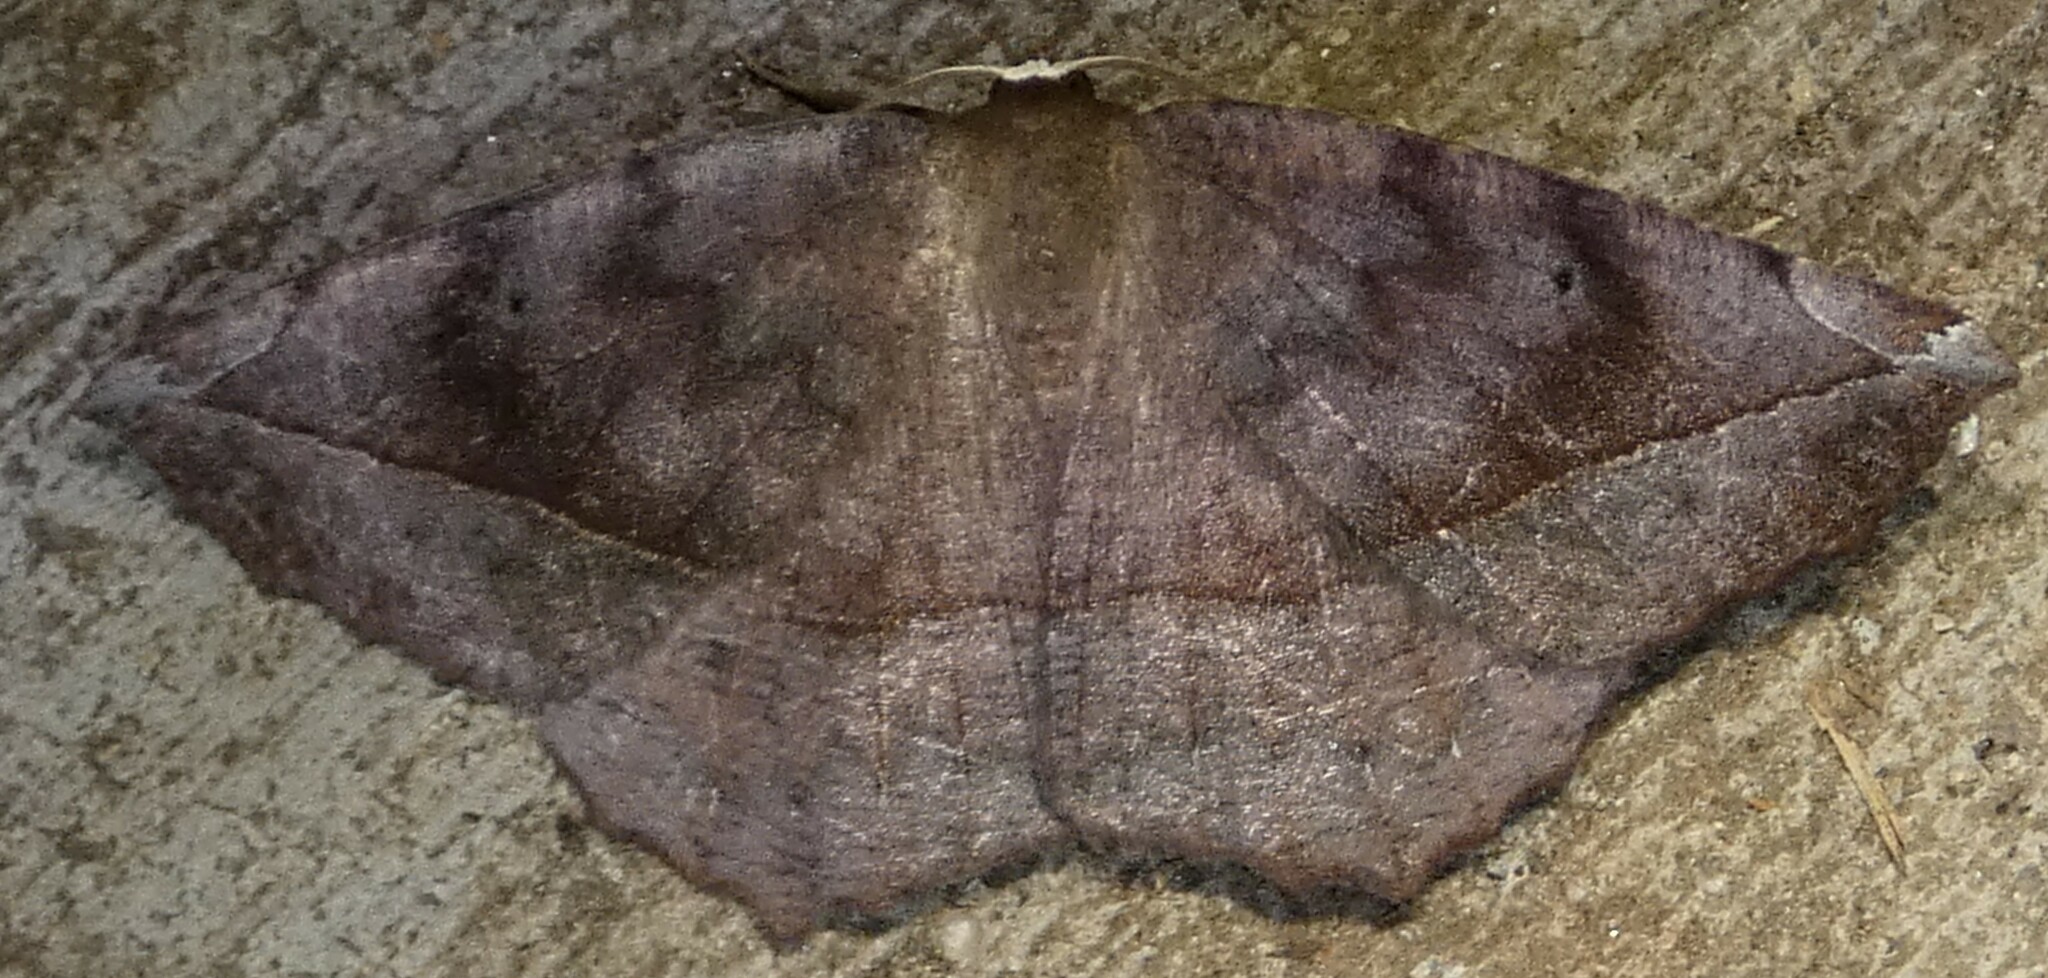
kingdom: Animalia
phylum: Arthropoda
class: Insecta
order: Lepidoptera
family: Geometridae
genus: Eutrapela
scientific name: Eutrapela clemataria
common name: Curved-toothed geometer
